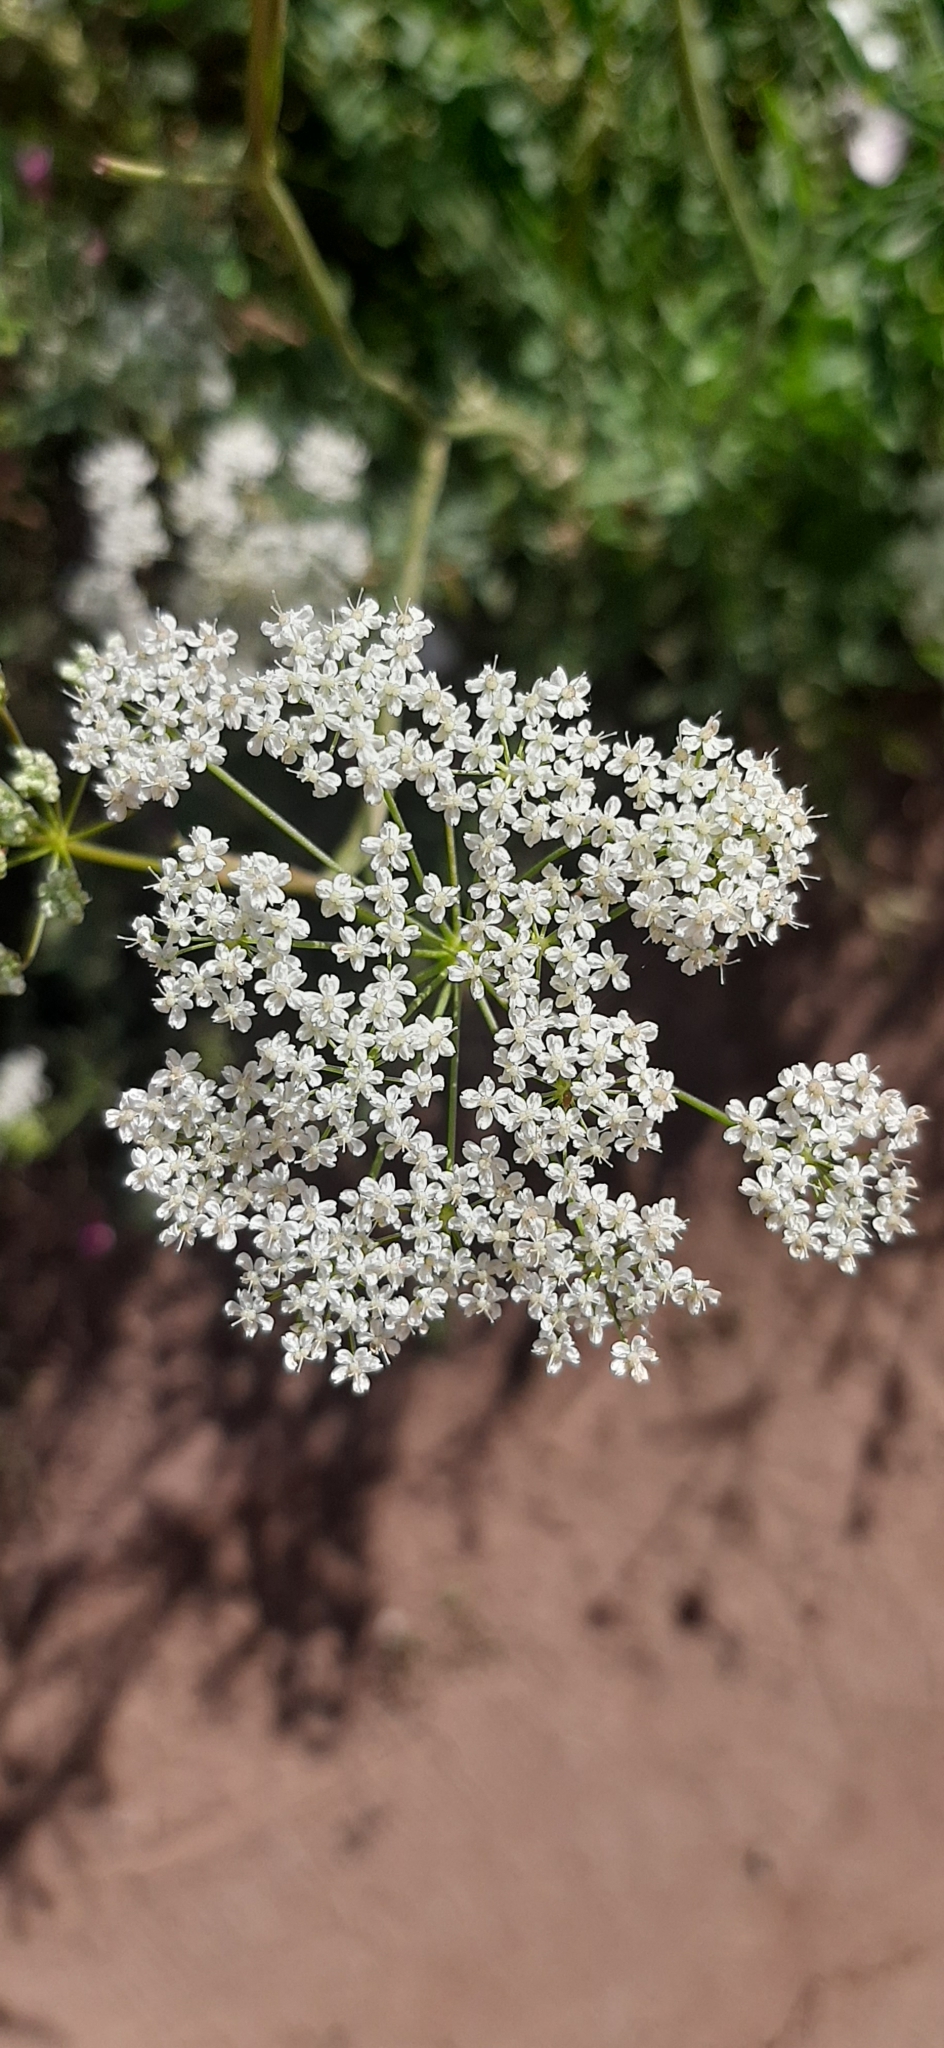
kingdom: Plantae
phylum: Tracheophyta
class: Magnoliopsida
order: Apiales
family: Apiaceae
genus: Pimpinella
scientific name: Pimpinella saxifraga
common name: Burnet-saxifrage
